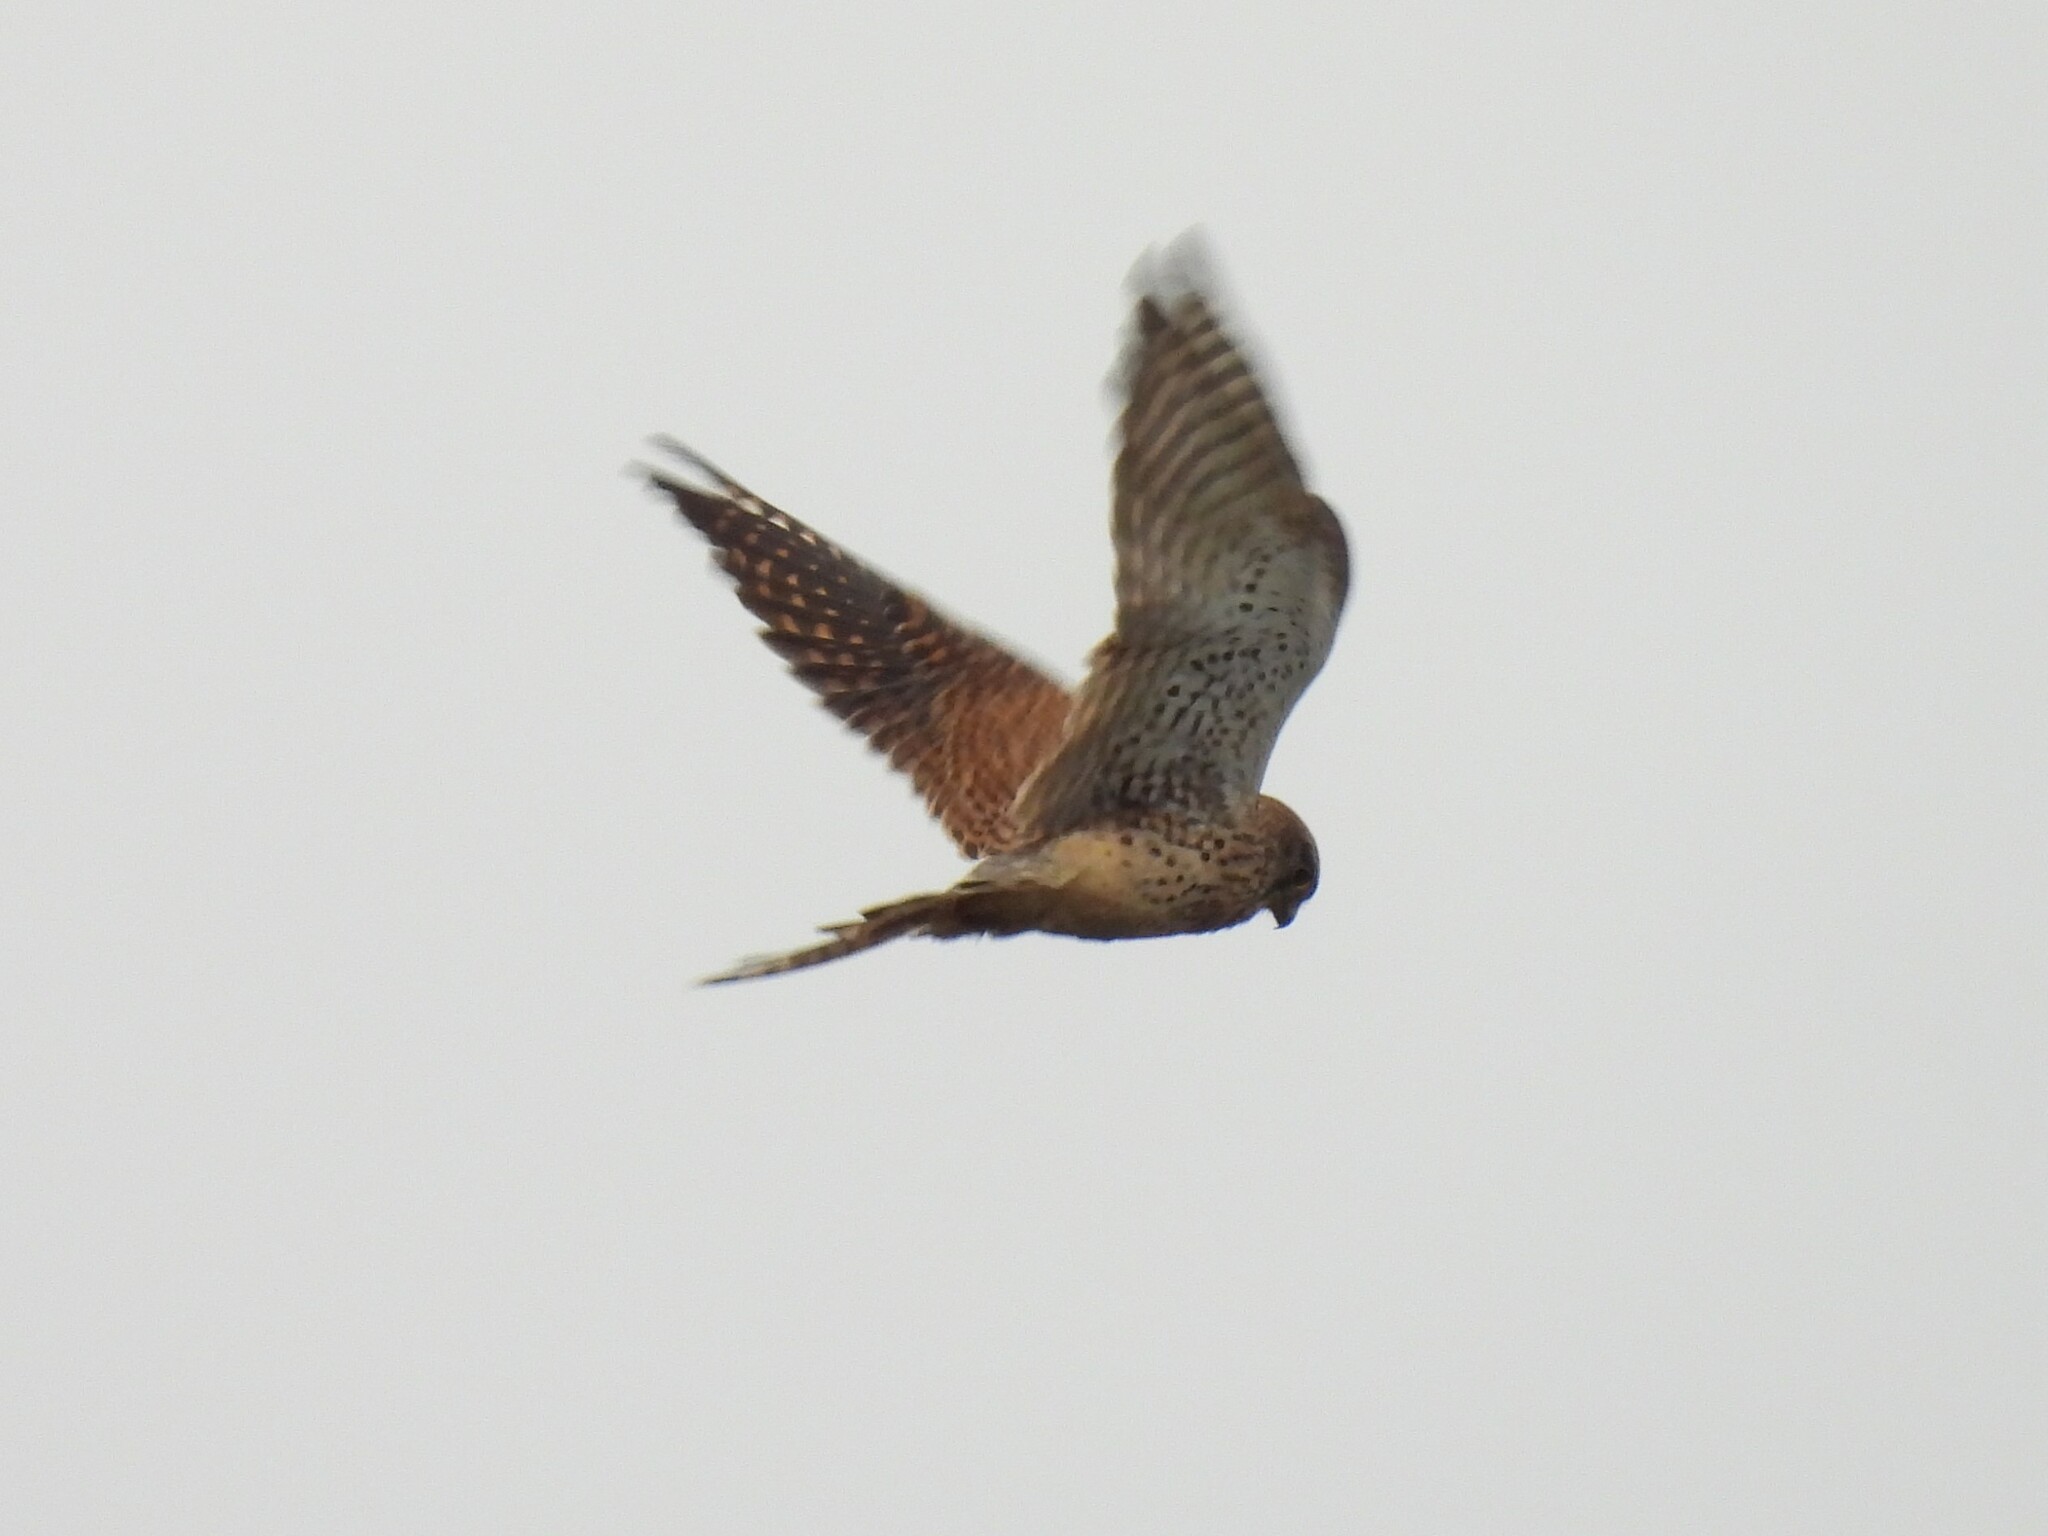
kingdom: Animalia
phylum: Chordata
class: Aves
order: Falconiformes
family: Falconidae
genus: Falco
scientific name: Falco tinnunculus
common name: Common kestrel
